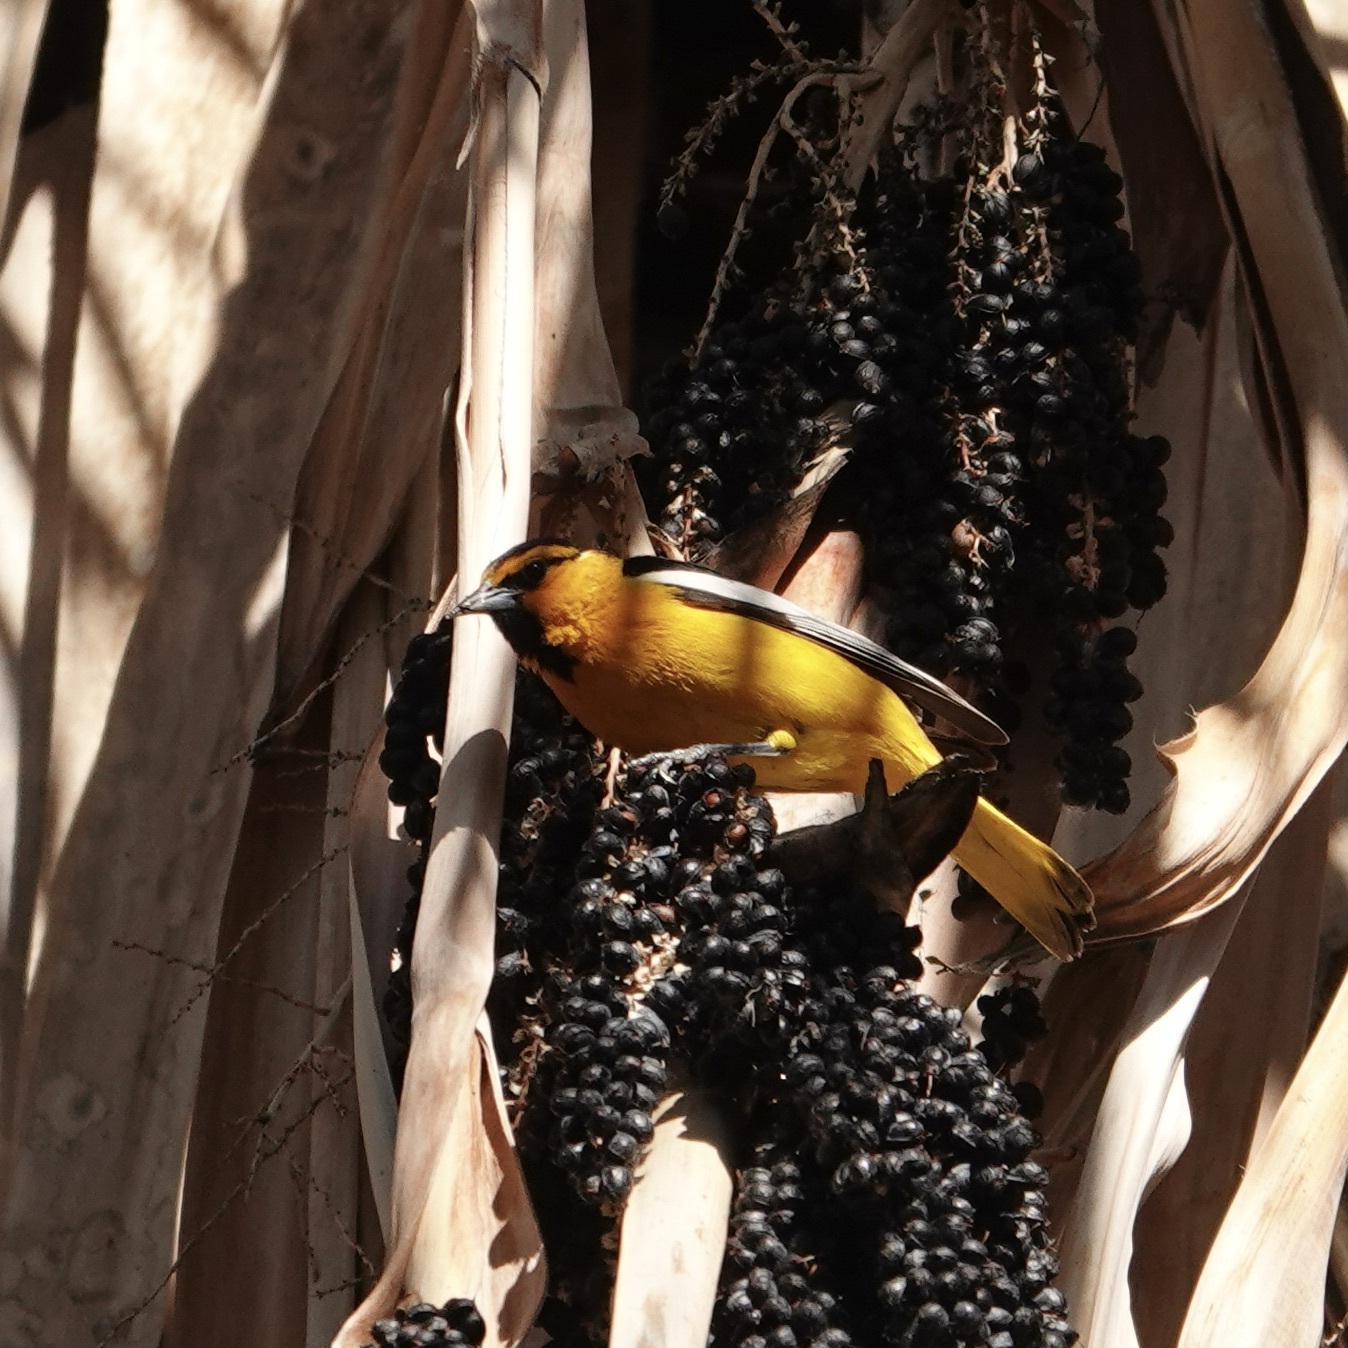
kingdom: Animalia
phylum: Chordata
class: Aves
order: Passeriformes
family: Icteridae
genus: Icterus
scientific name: Icterus bullockii
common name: Bullock's oriole
